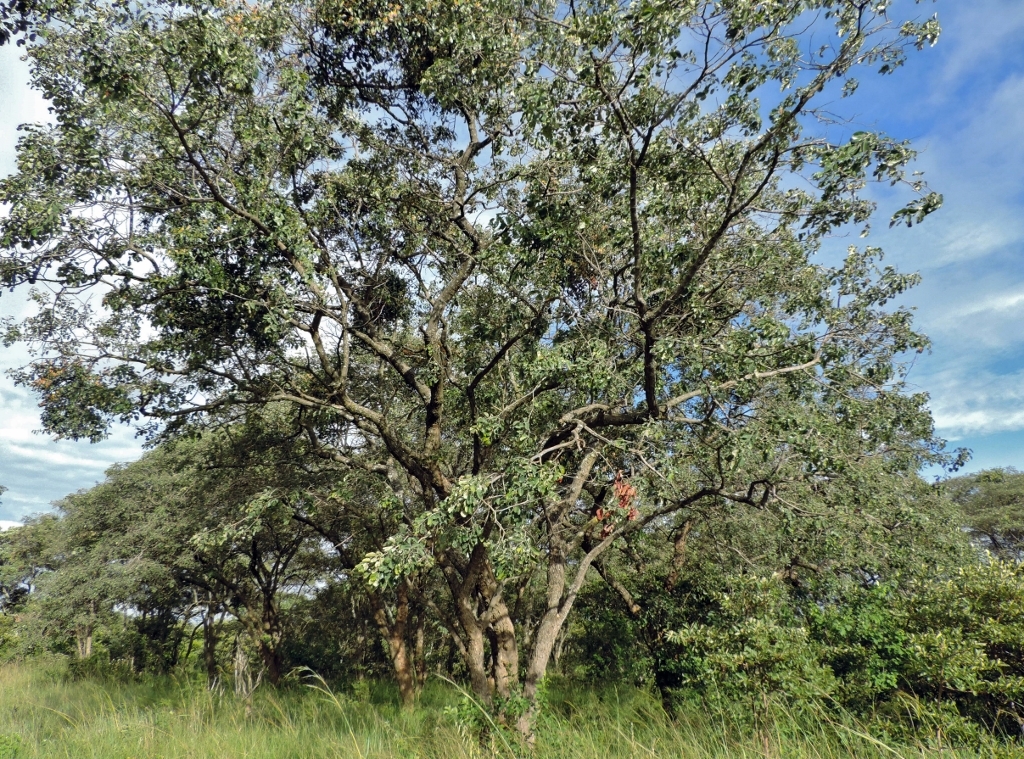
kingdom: Plantae
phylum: Tracheophyta
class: Magnoliopsida
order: Fabales
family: Fabaceae
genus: Pterocarpus
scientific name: Pterocarpus rotundifolius
